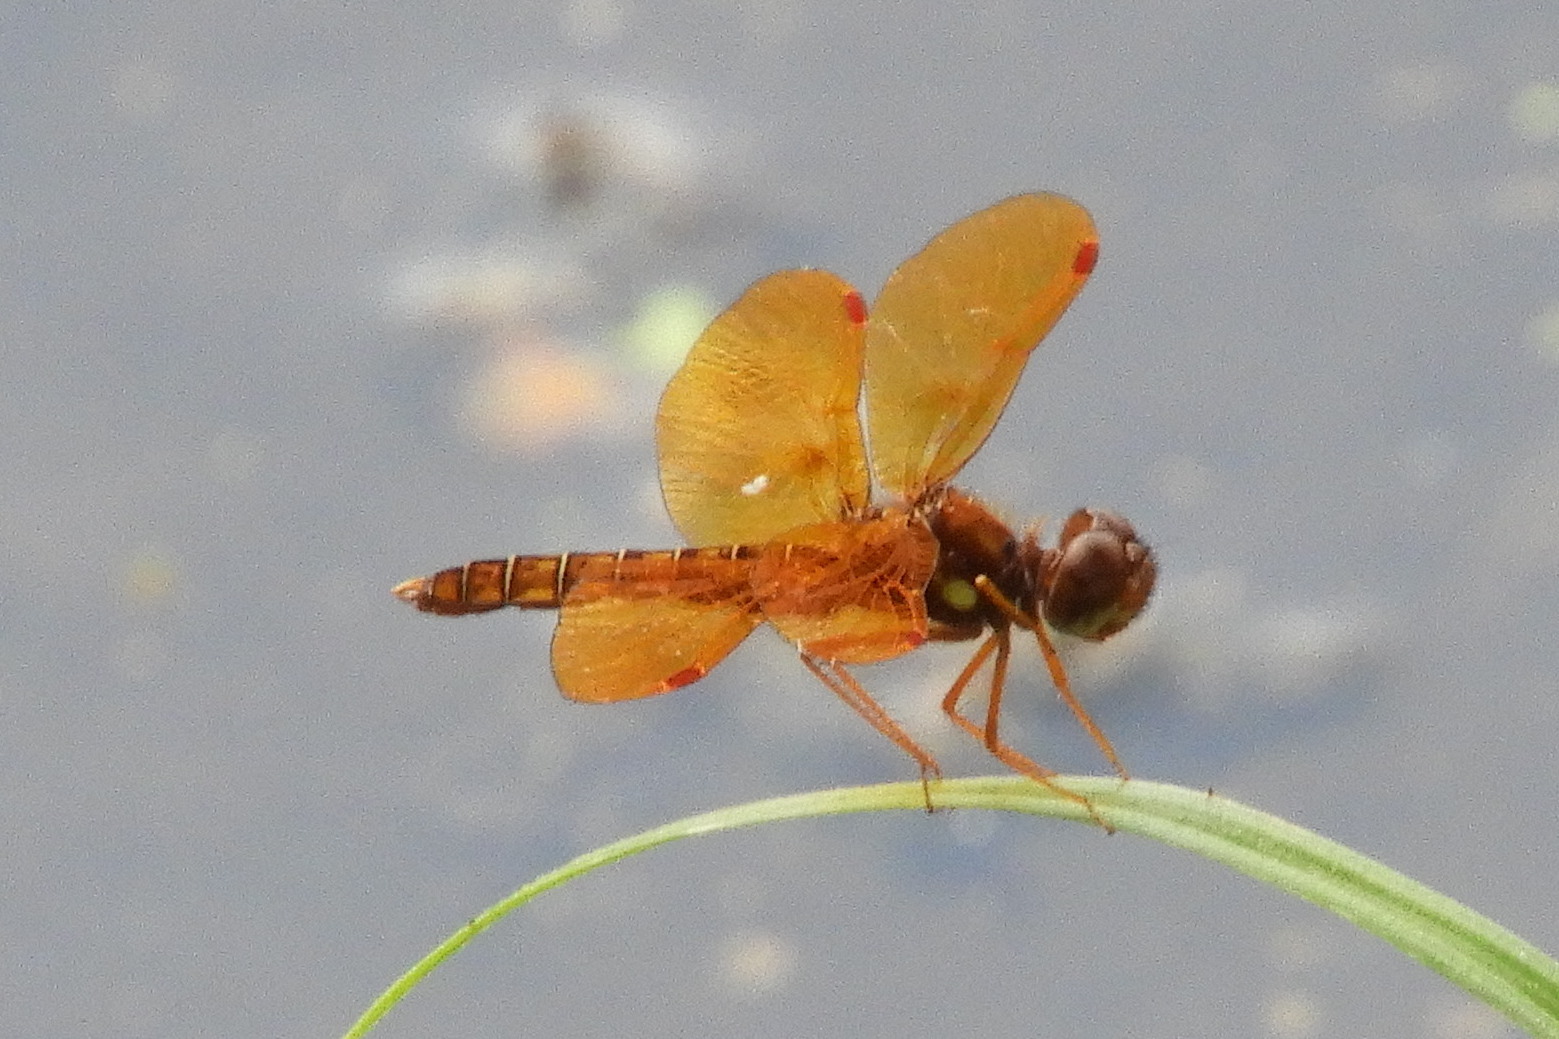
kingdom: Animalia
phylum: Arthropoda
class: Insecta
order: Odonata
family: Libellulidae
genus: Perithemis
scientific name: Perithemis tenera
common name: Eastern amberwing
